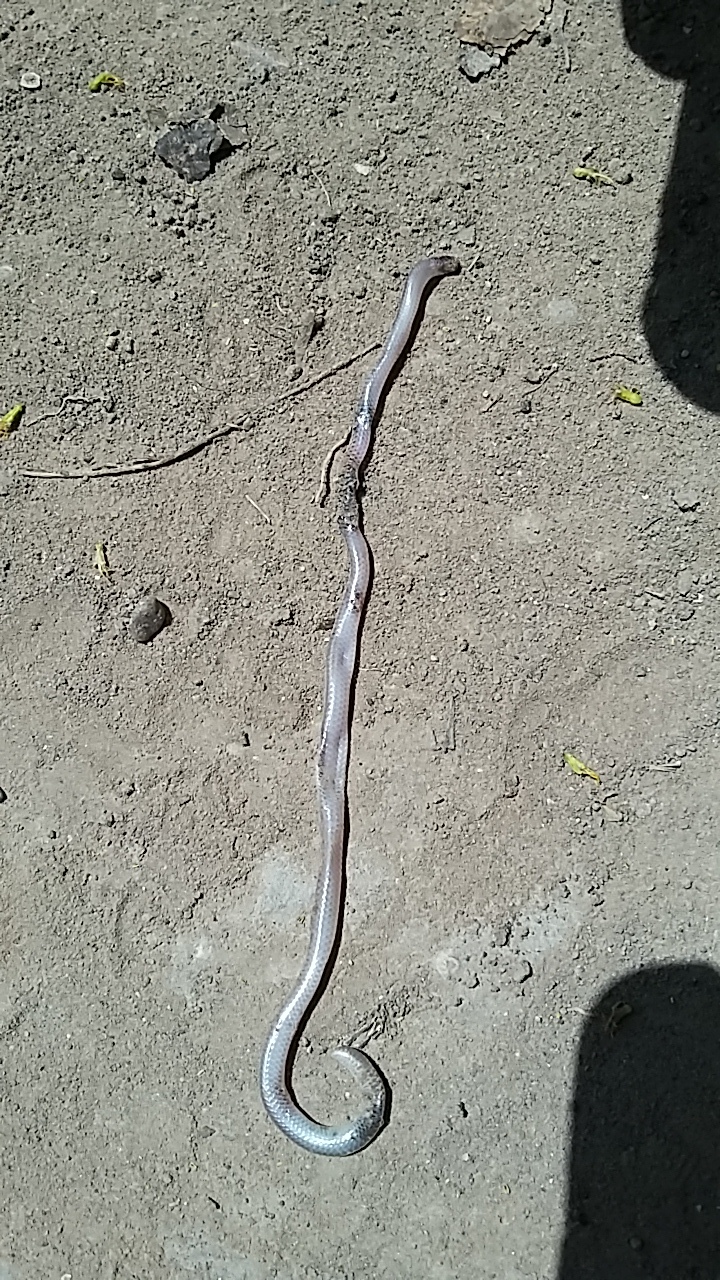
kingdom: Animalia
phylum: Chordata
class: Squamata
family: Leptotyphlopidae
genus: Rena
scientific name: Rena dulcis
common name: Texas blind snake
